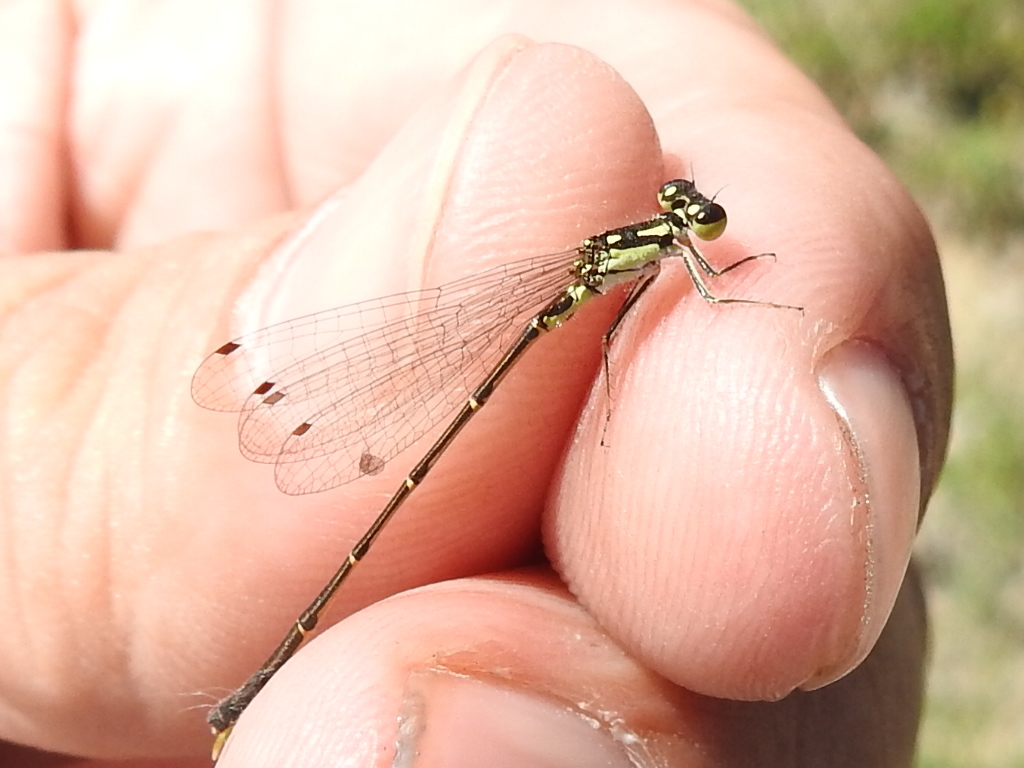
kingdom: Animalia
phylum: Arthropoda
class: Insecta
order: Odonata
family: Coenagrionidae
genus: Ischnura
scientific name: Ischnura posita
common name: Fragile forktail
